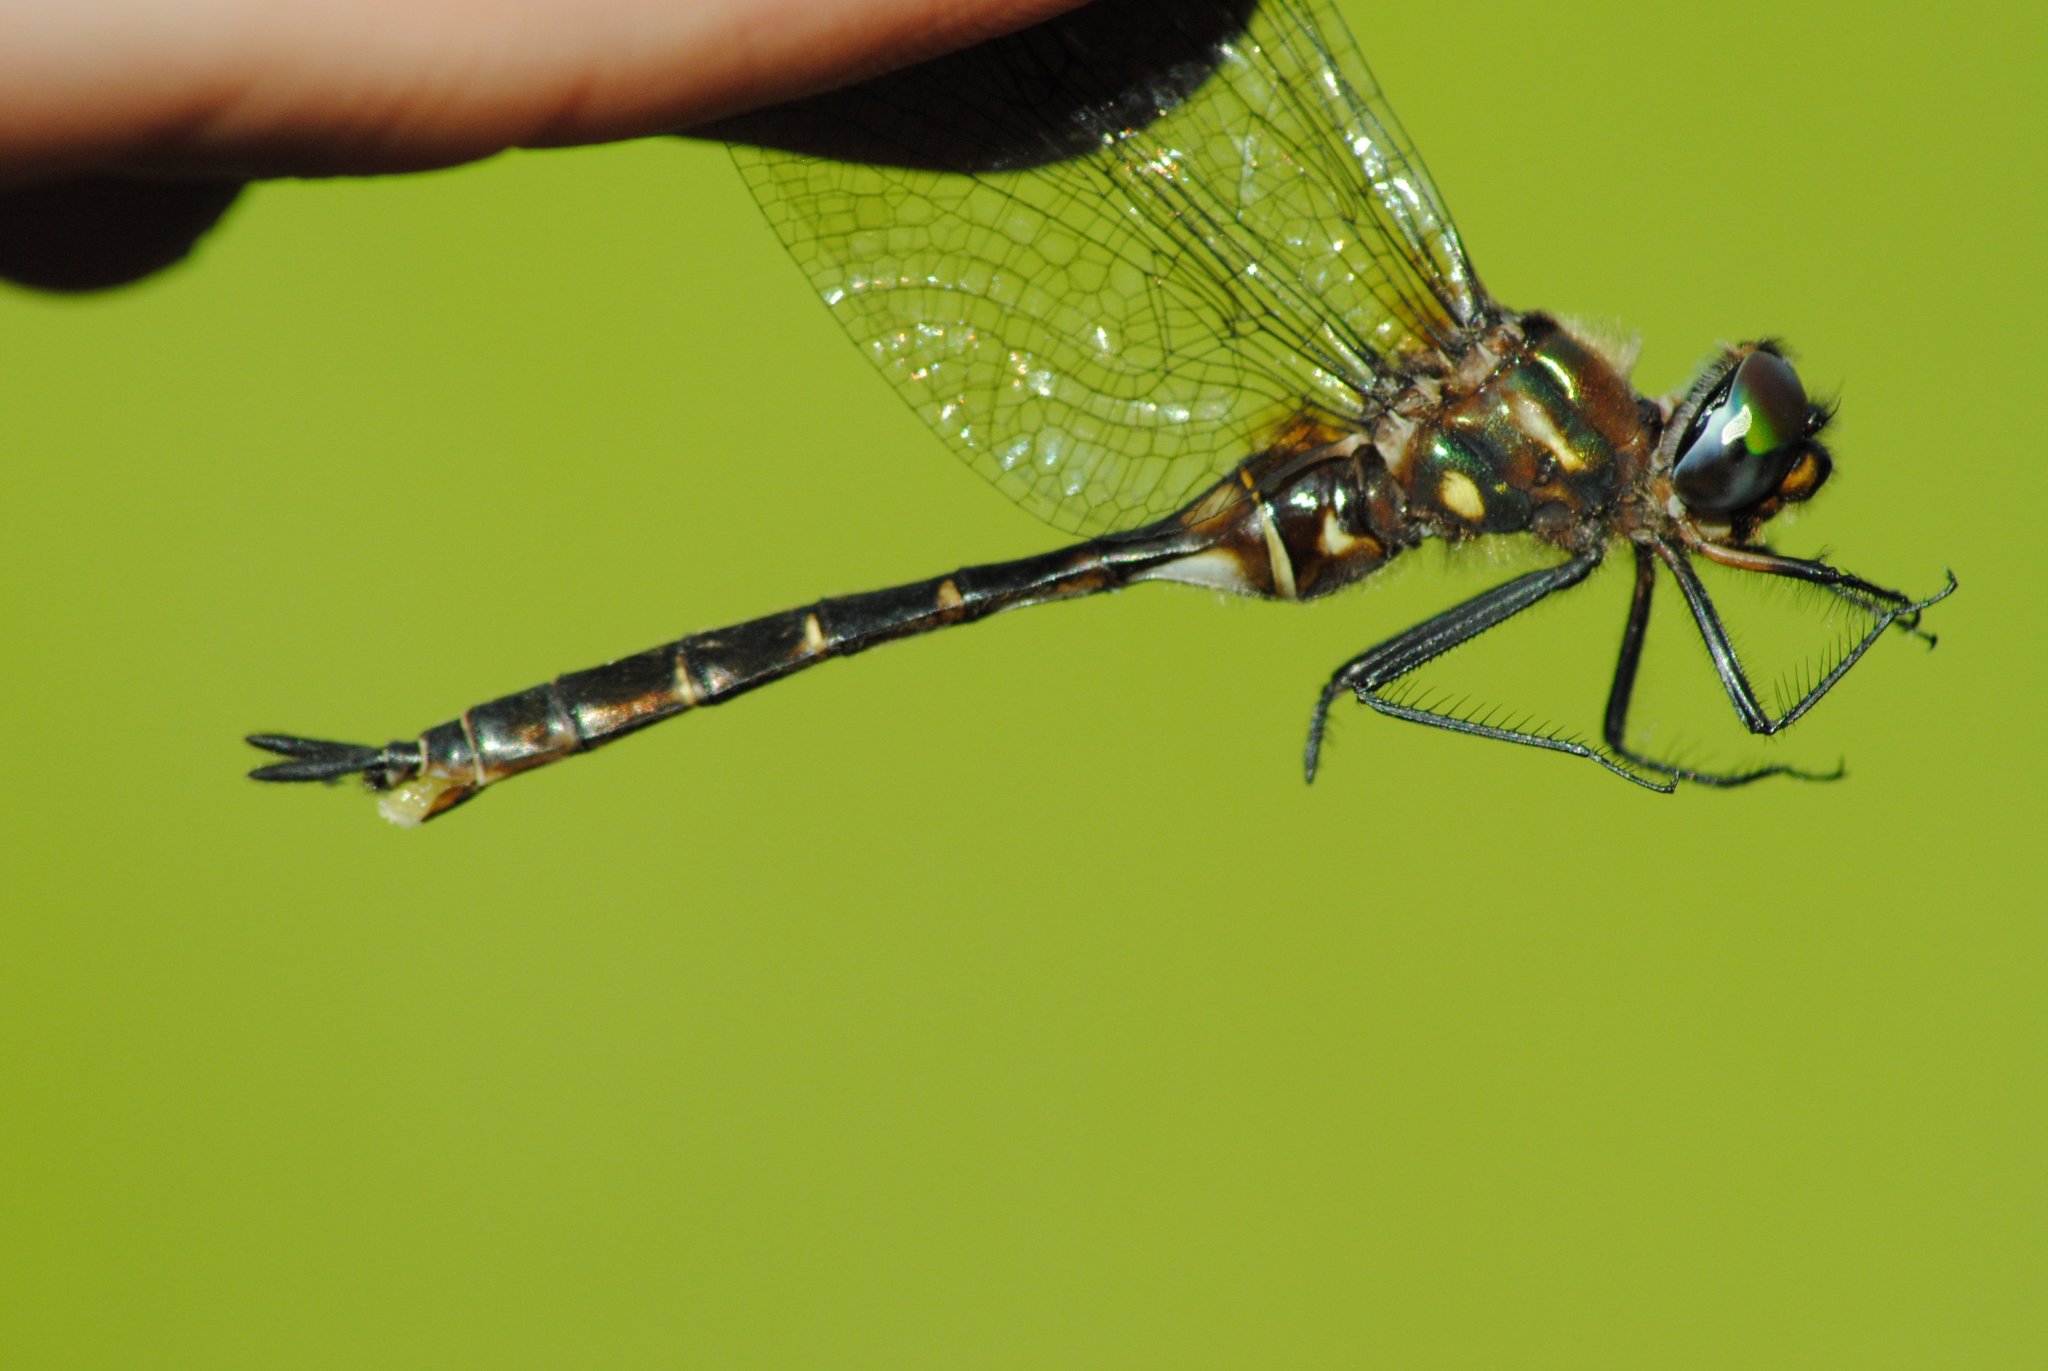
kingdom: Animalia
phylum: Arthropoda
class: Insecta
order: Odonata
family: Corduliidae
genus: Somatochlora
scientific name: Somatochlora walshii
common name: Brush-tipped emerald
